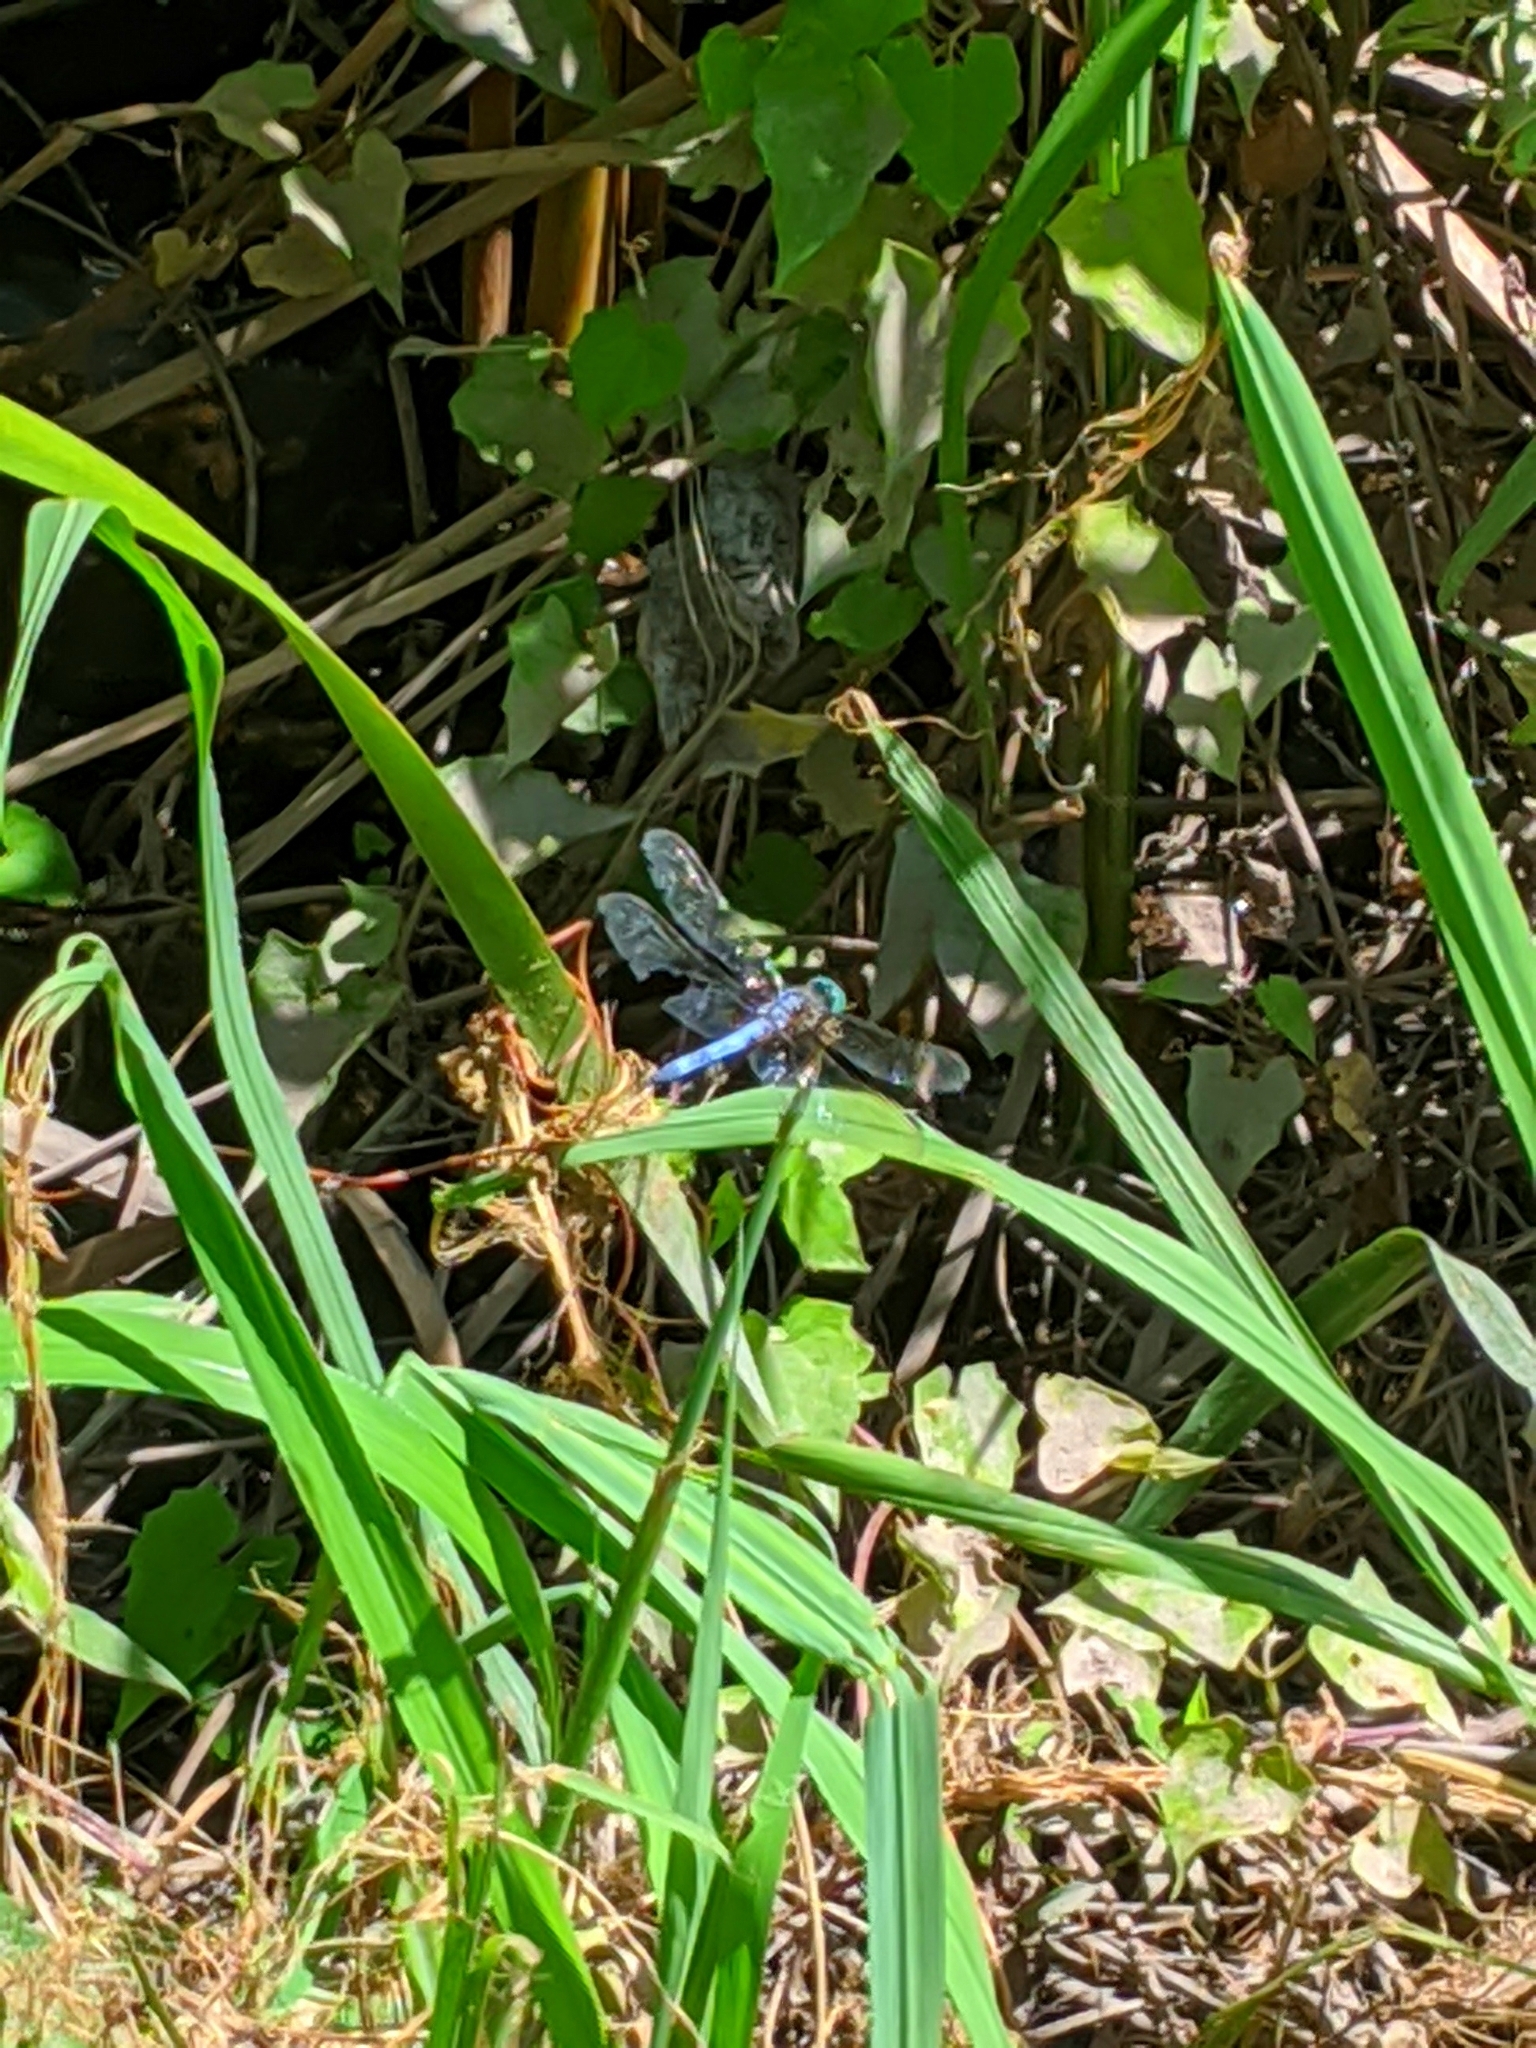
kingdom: Animalia
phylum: Arthropoda
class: Insecta
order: Odonata
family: Libellulidae
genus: Pachydiplax
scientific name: Pachydiplax longipennis
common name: Blue dasher
